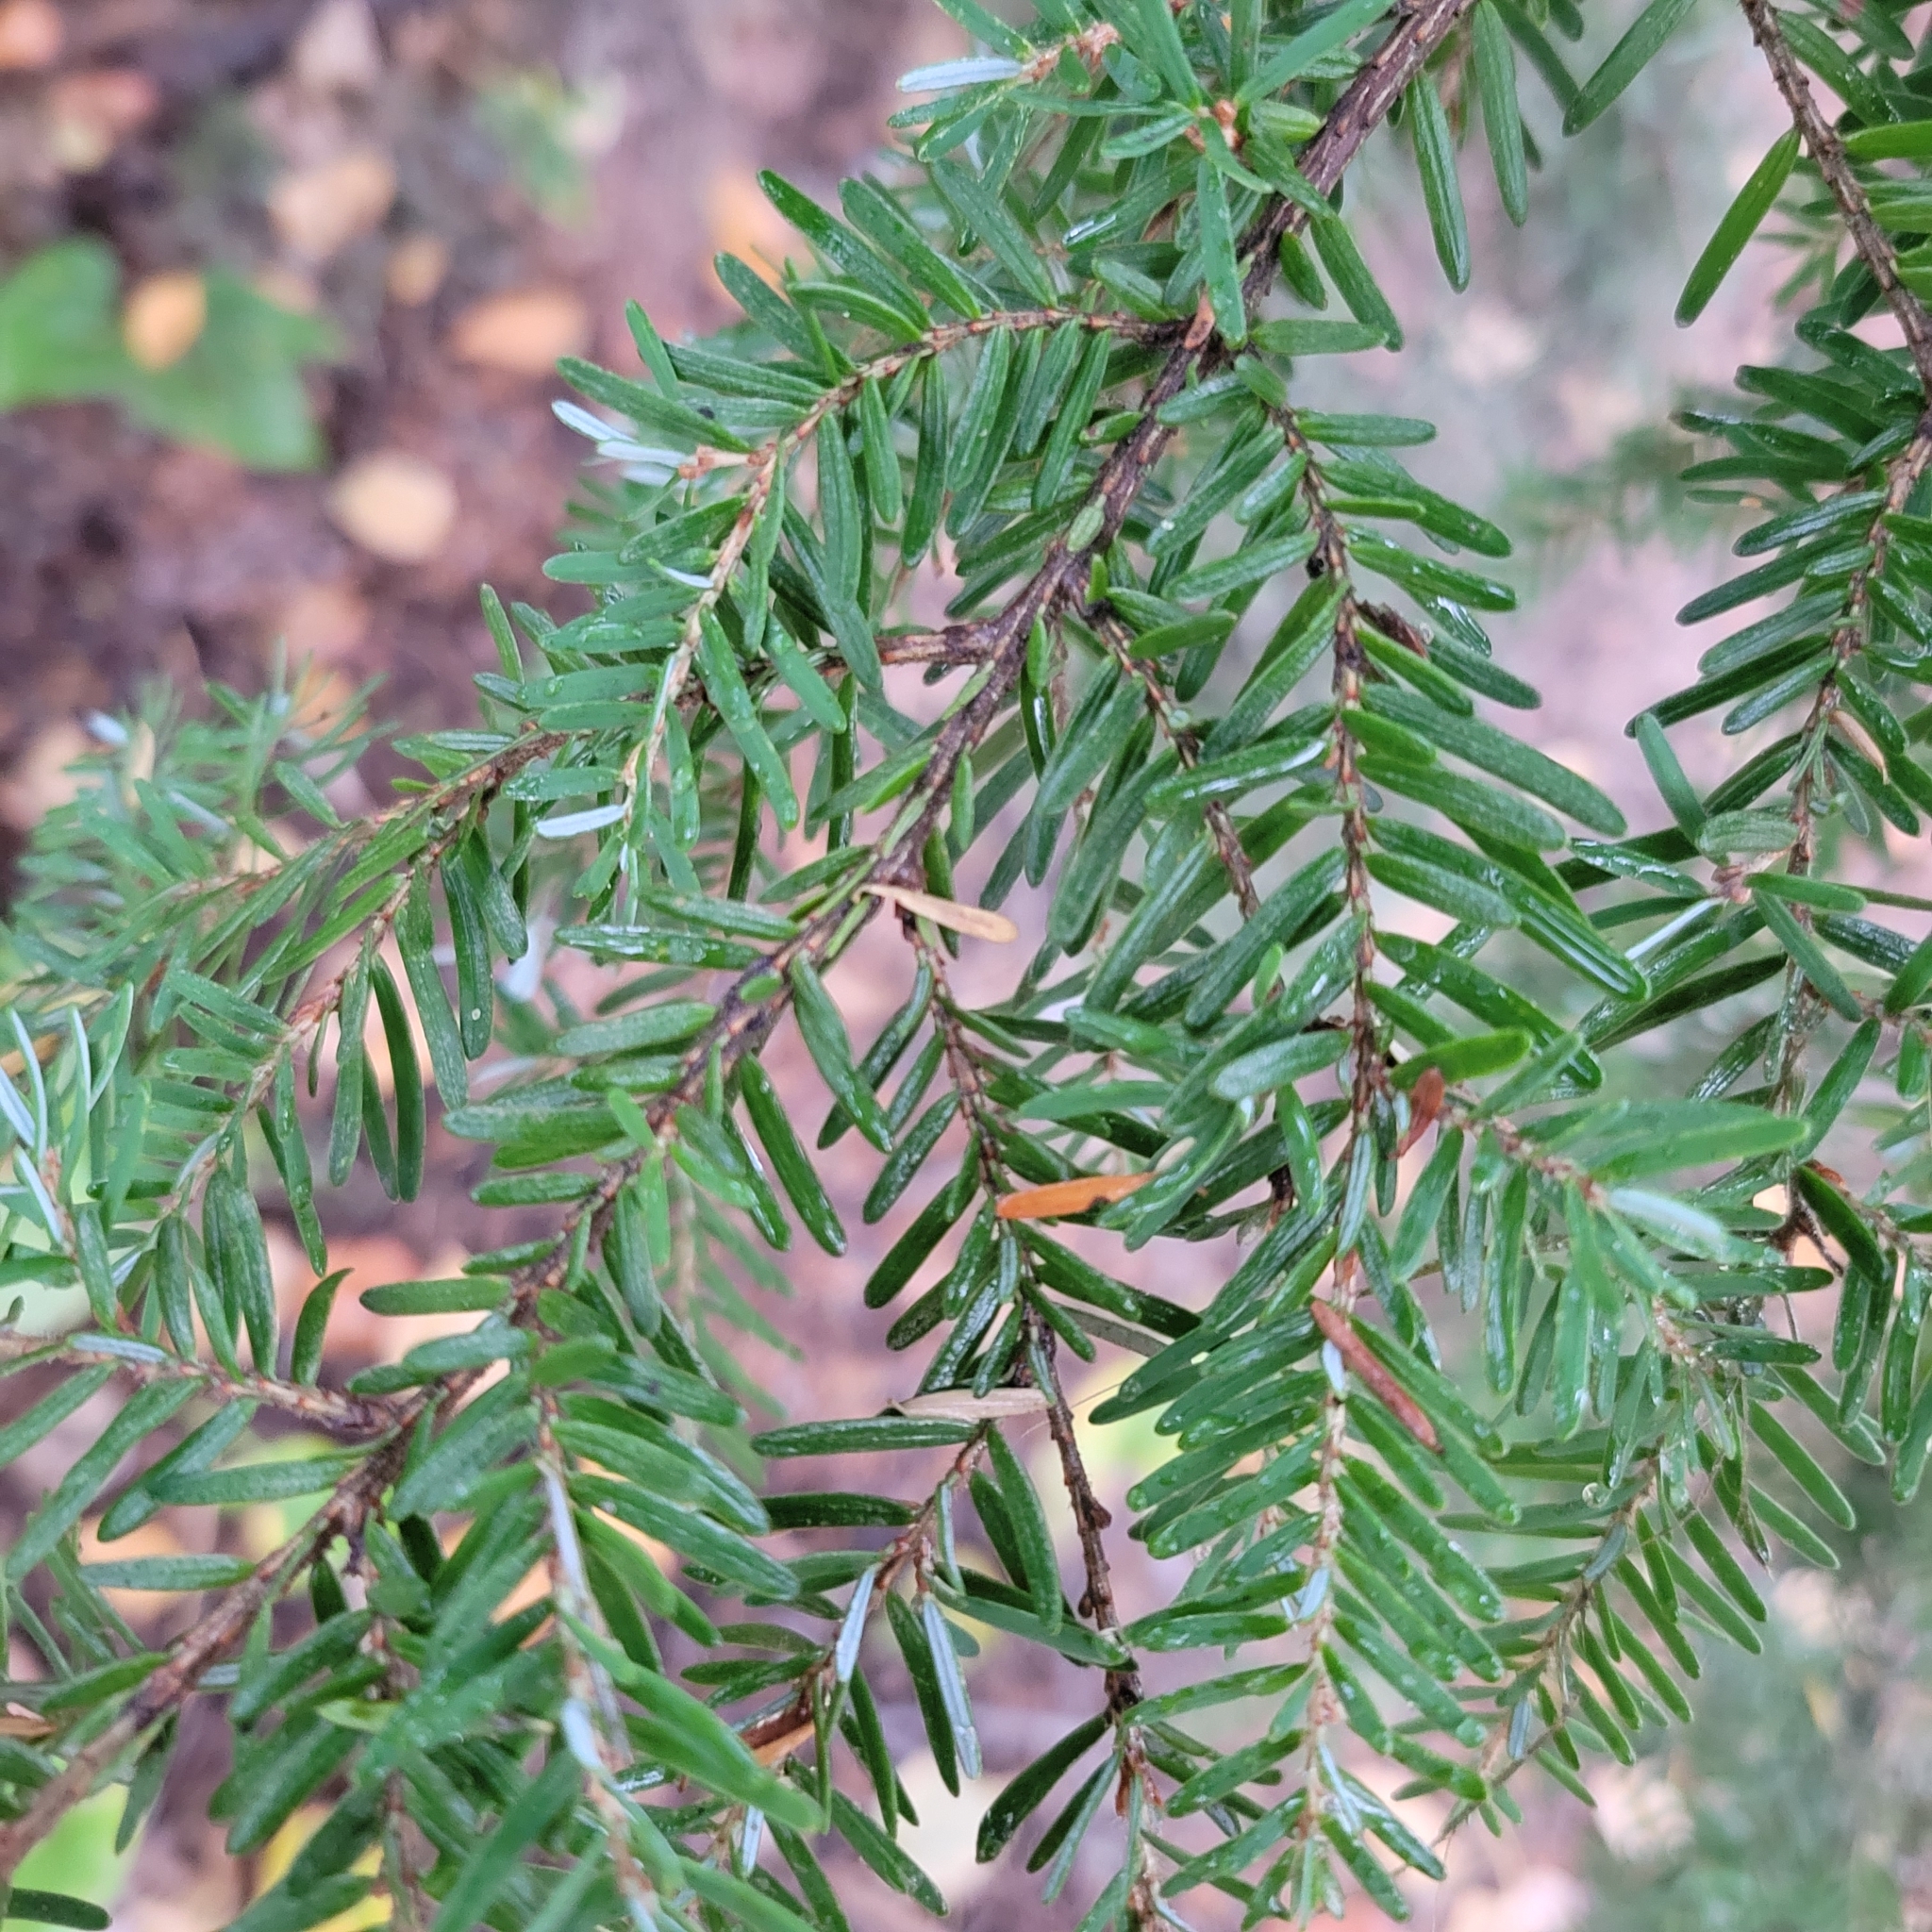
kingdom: Plantae
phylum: Tracheophyta
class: Pinopsida
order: Pinales
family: Pinaceae
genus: Tsuga
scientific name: Tsuga heterophylla
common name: Western hemlock
